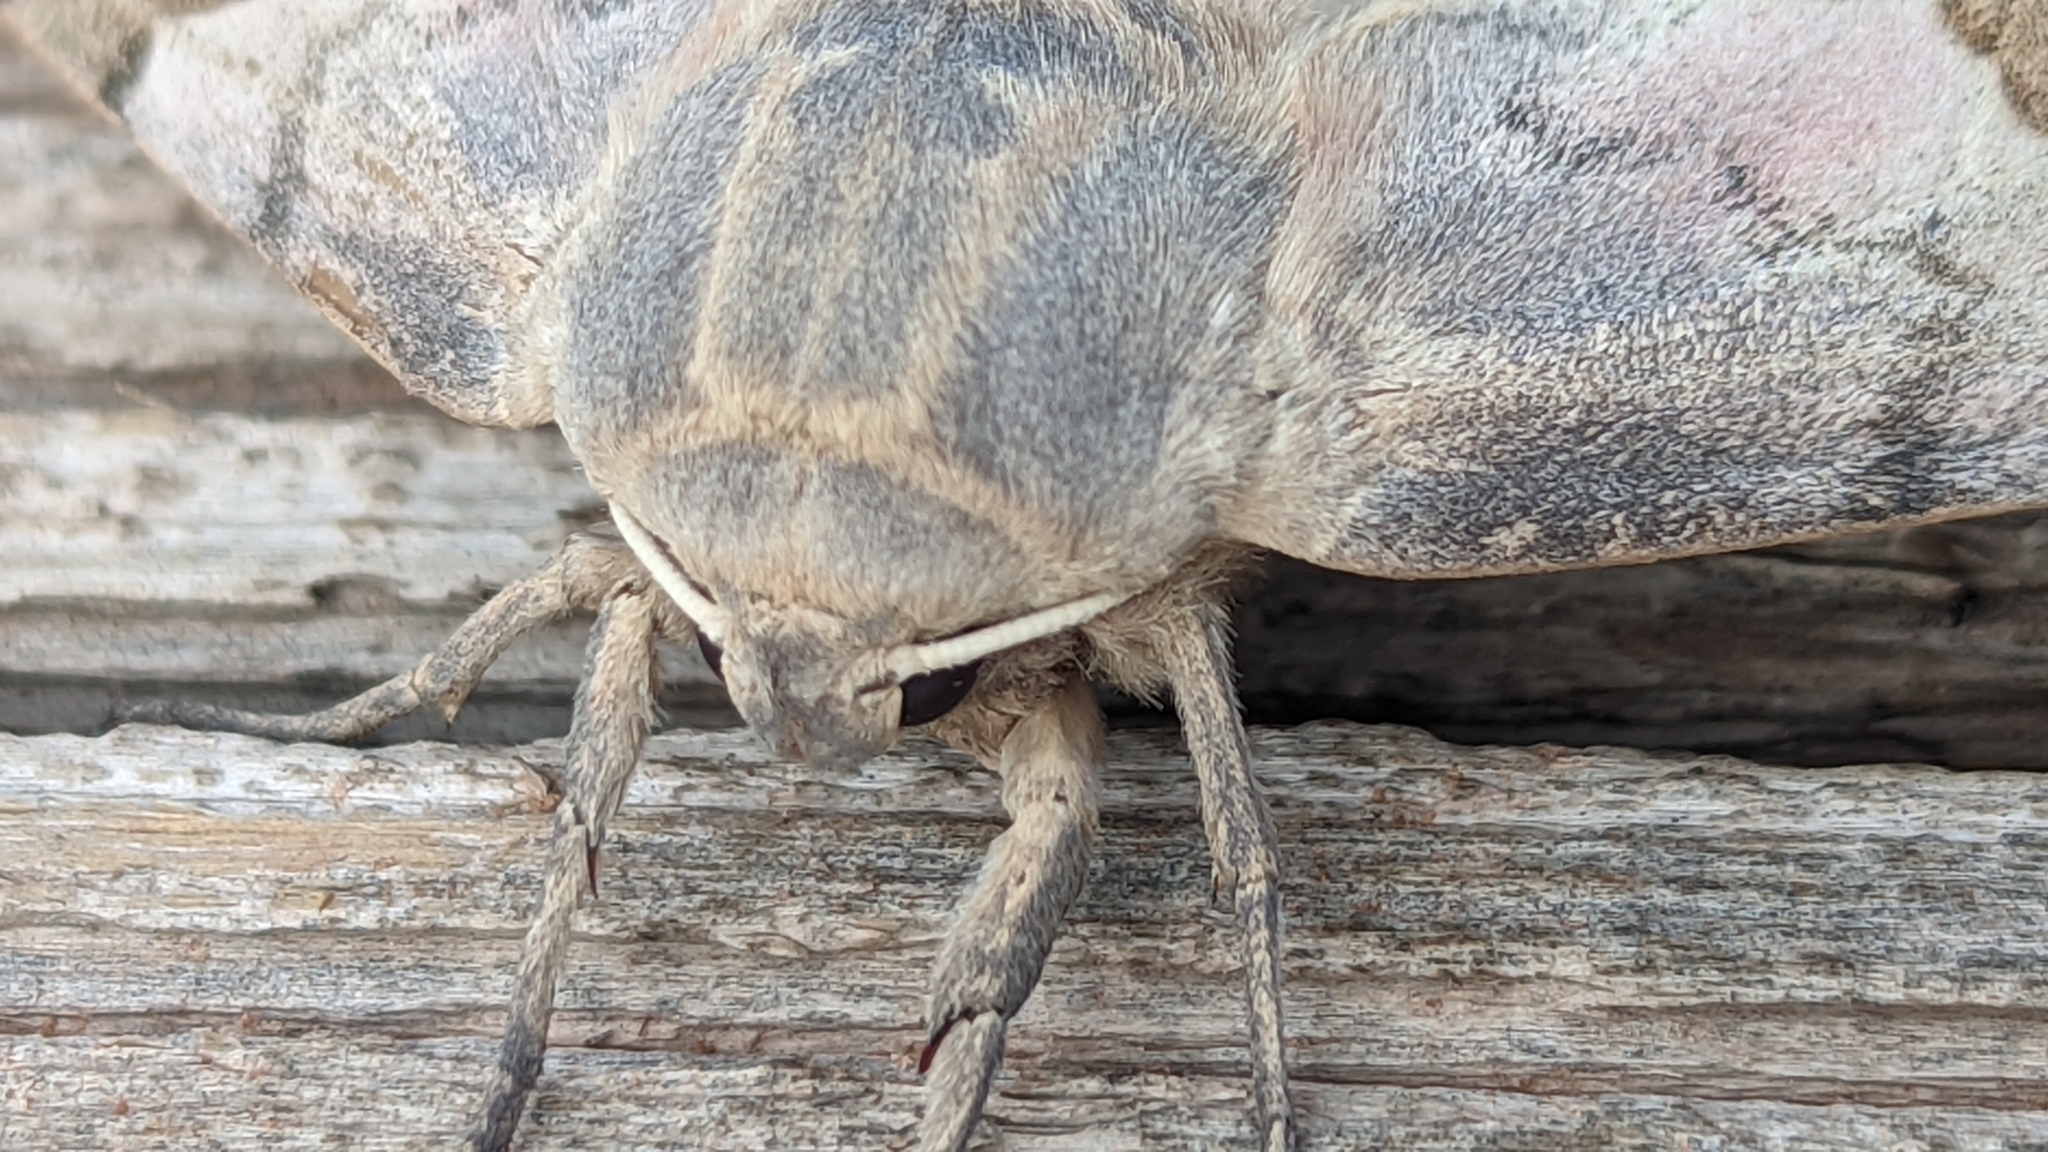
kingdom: Animalia
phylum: Arthropoda
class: Insecta
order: Lepidoptera
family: Sphingidae
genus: Pachysphinx
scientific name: Pachysphinx occidentalis
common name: Western poplar sphinx
